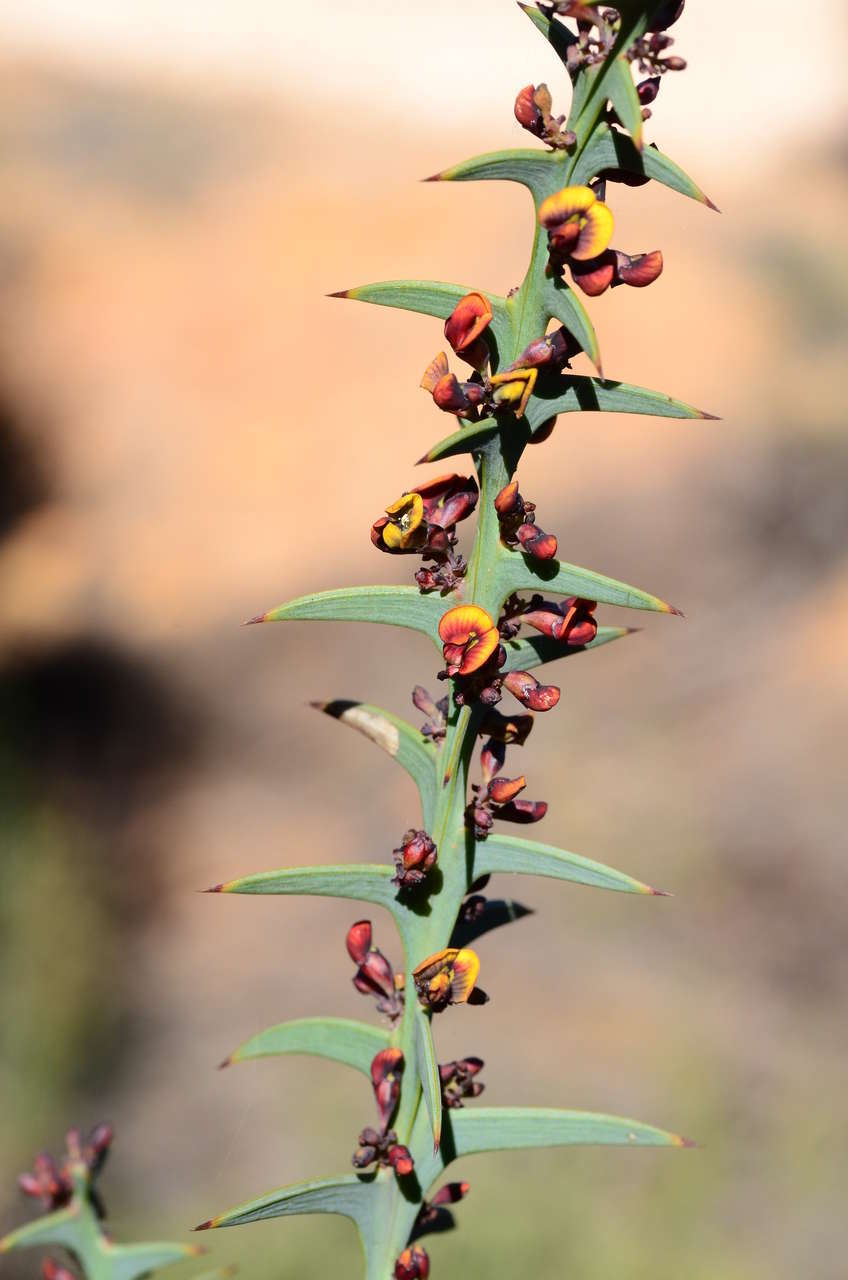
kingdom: Plantae
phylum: Tracheophyta
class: Magnoliopsida
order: Fabales
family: Fabaceae
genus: Daviesia
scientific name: Daviesia pectinata
